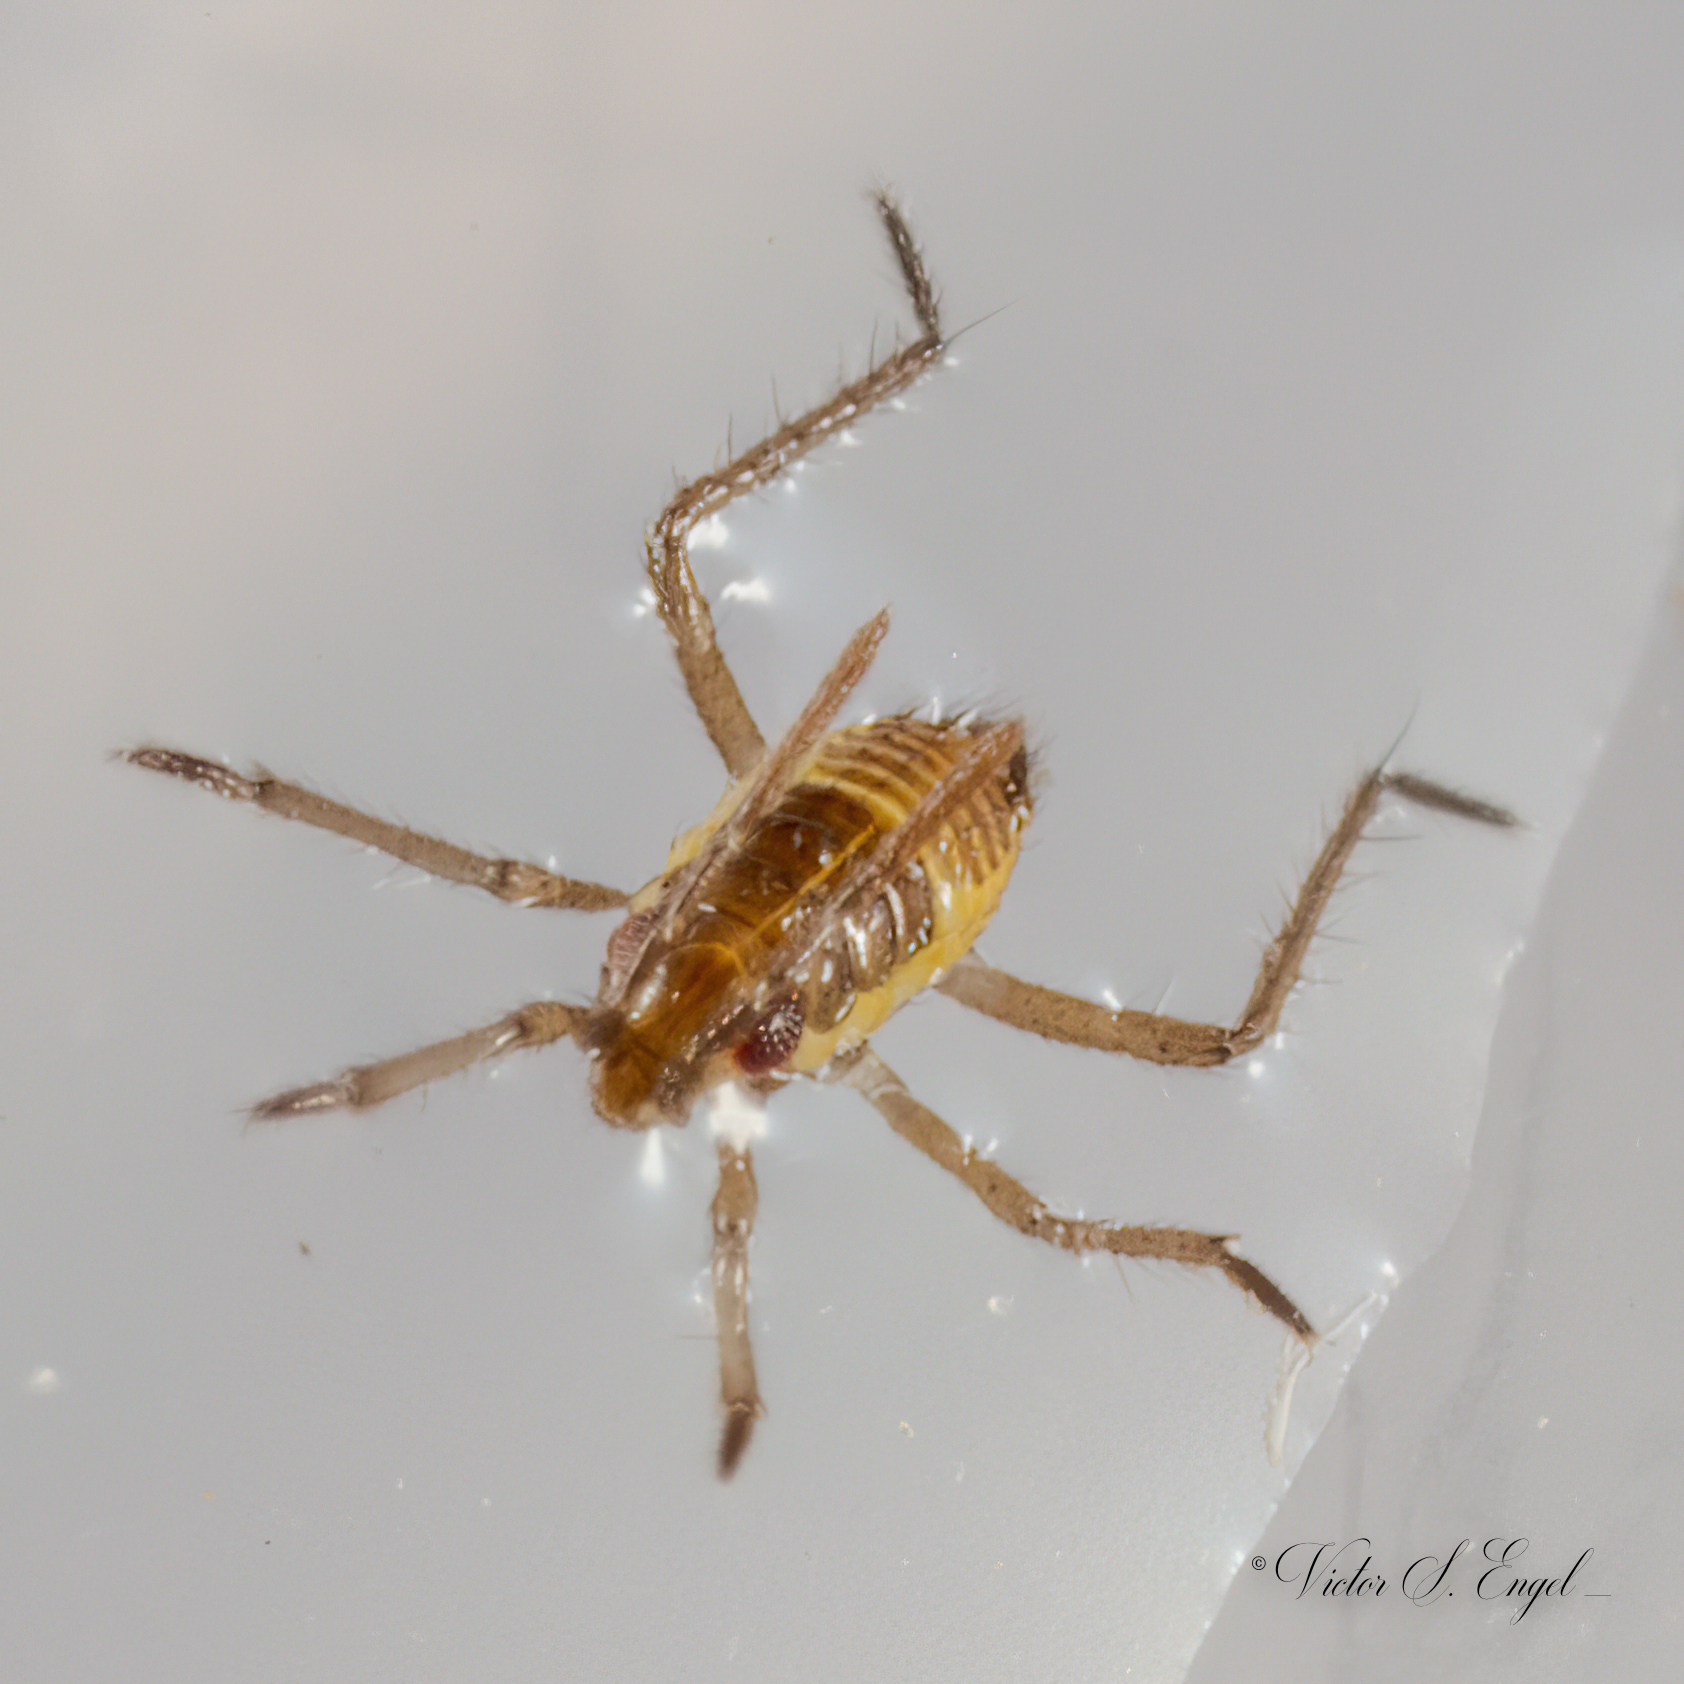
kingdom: Animalia
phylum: Arthropoda
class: Insecta
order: Hemiptera
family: Mesoveliidae
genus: Mesovelia
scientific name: Mesovelia
